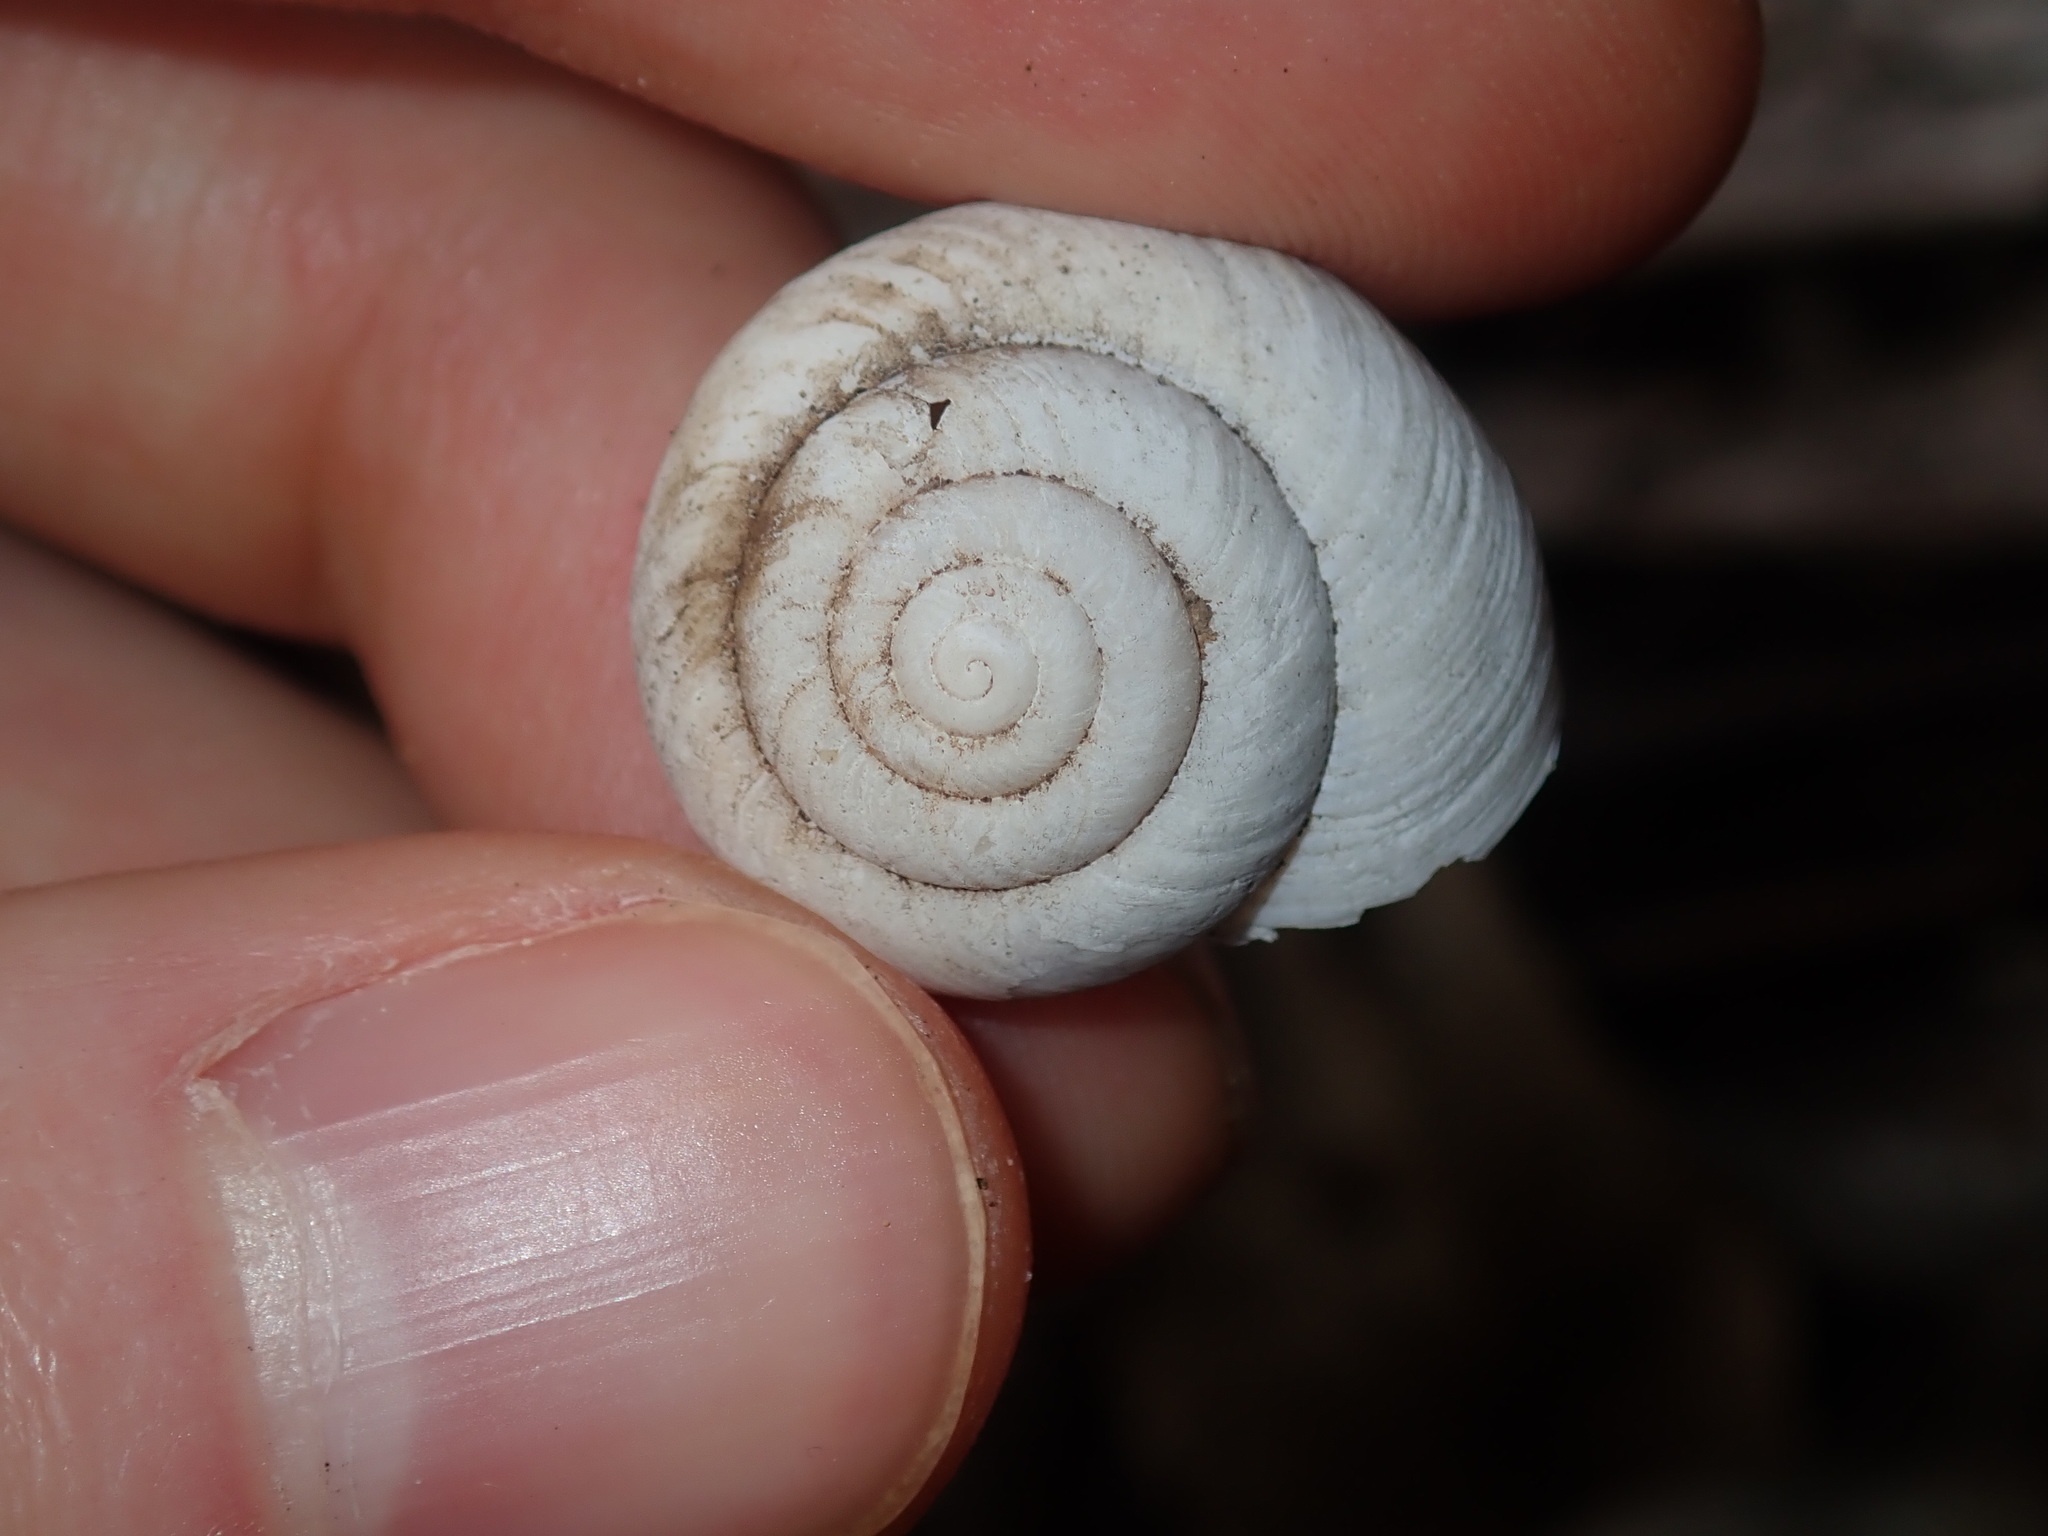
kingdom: Animalia
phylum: Mollusca
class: Gastropoda
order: Stylommatophora
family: Camaenidae
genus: Sauroconcha
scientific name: Sauroconcha sheai
